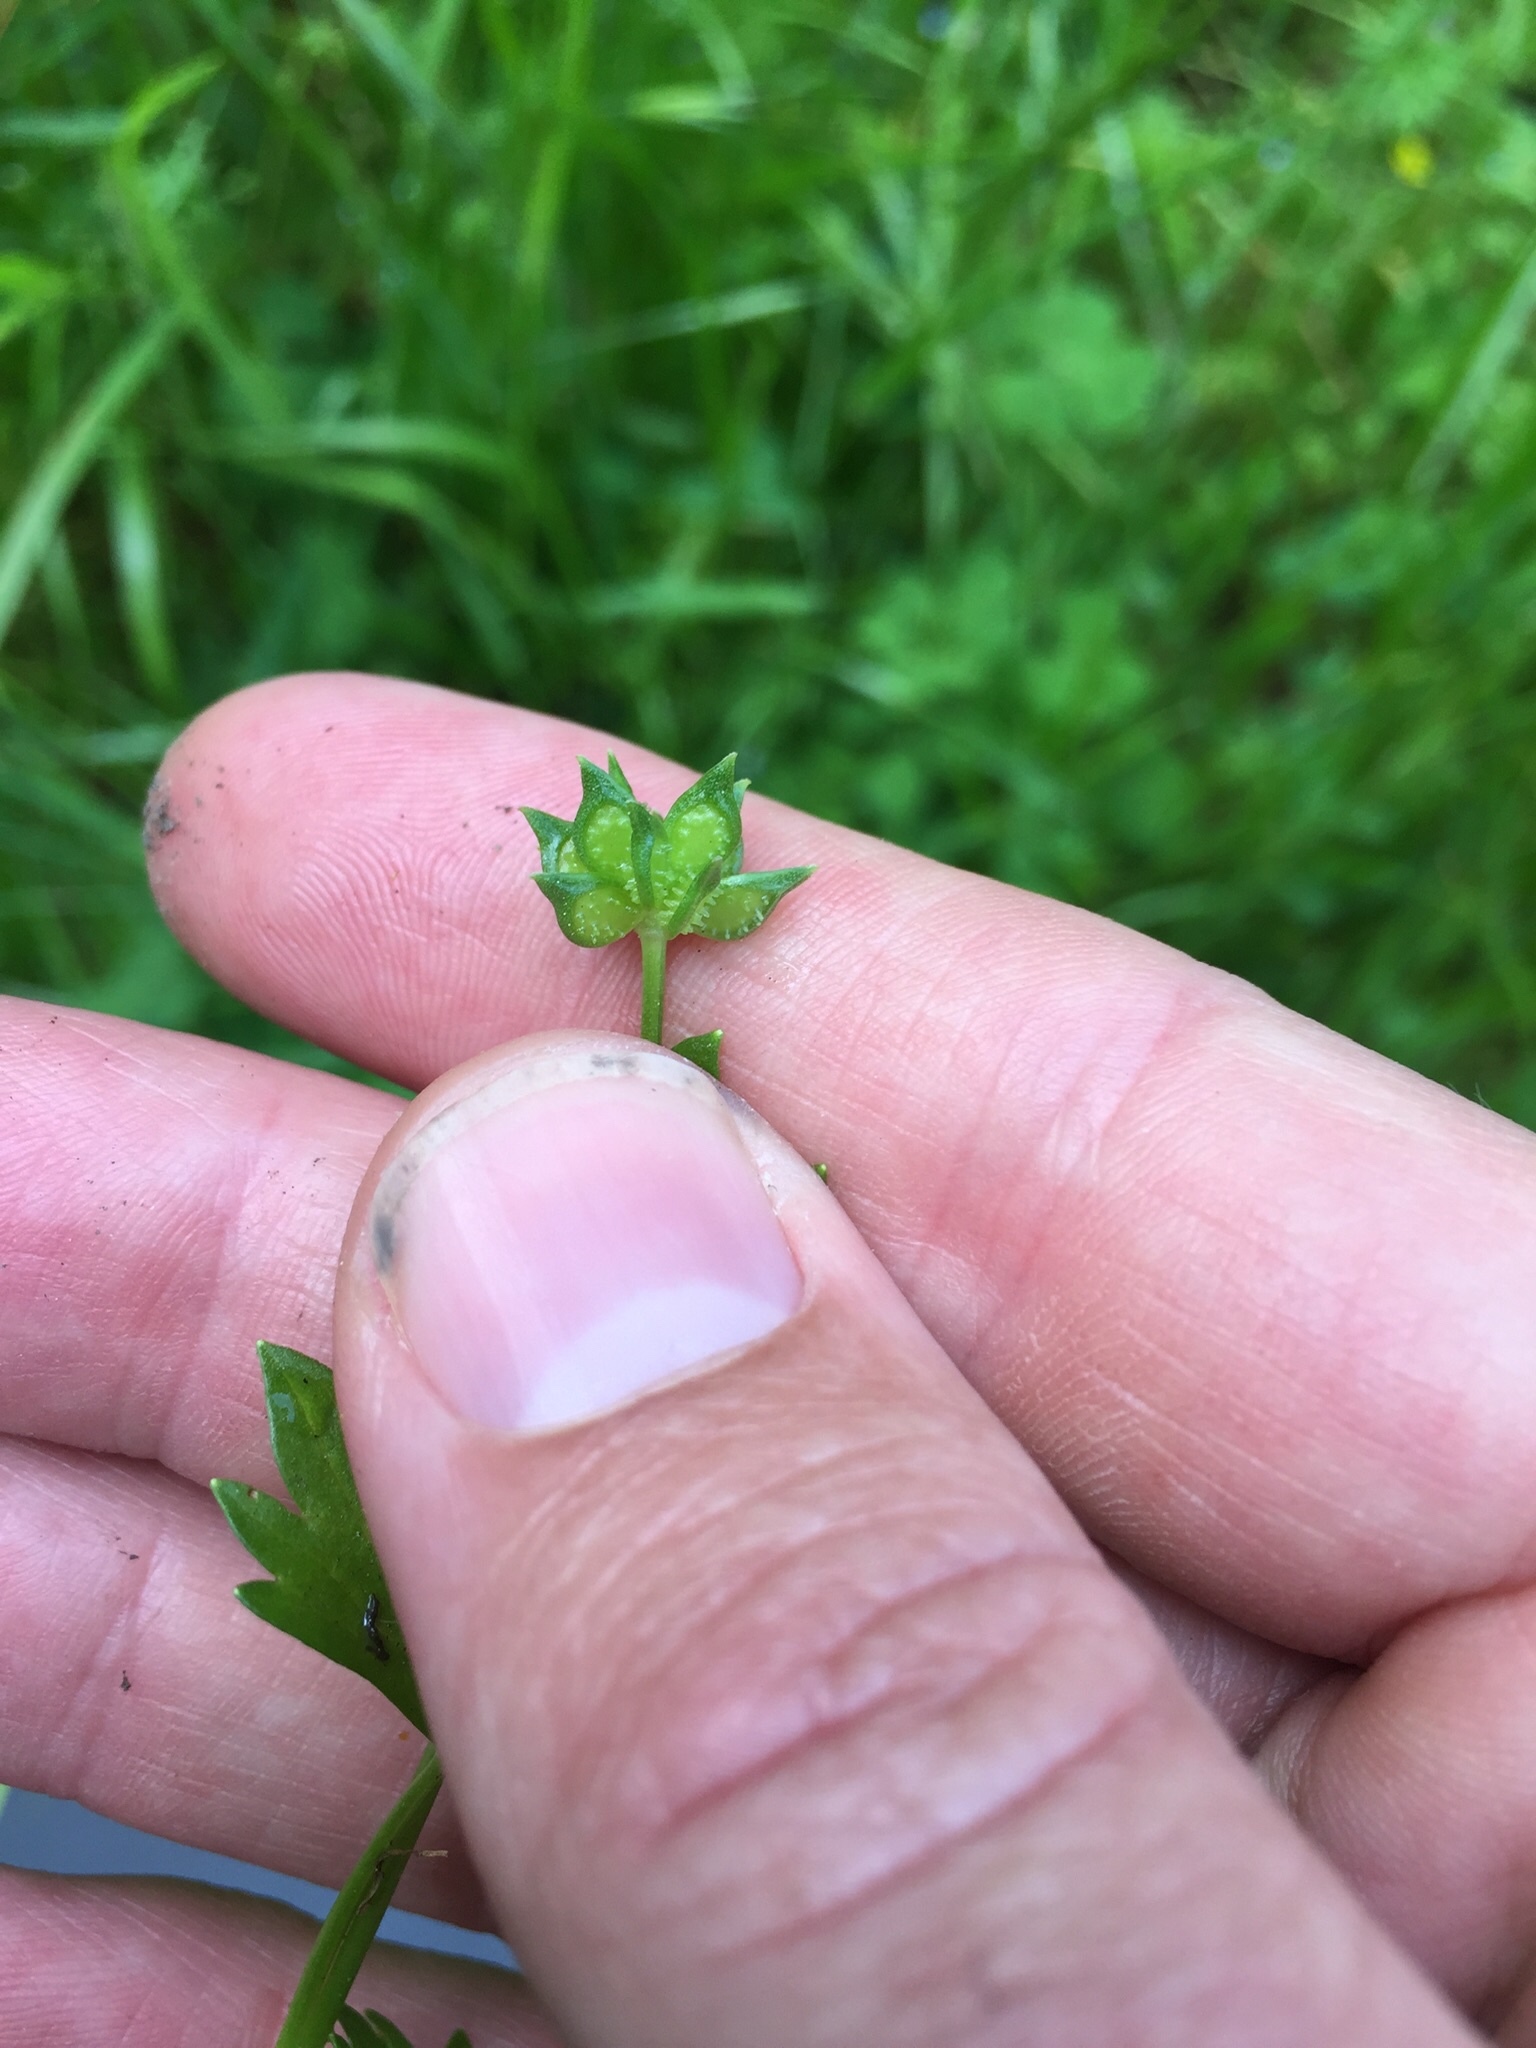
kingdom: Plantae
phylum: Tracheophyta
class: Magnoliopsida
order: Ranunculales
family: Ranunculaceae
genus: Ranunculus
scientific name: Ranunculus muricatus
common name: Rough-fruited buttercup
